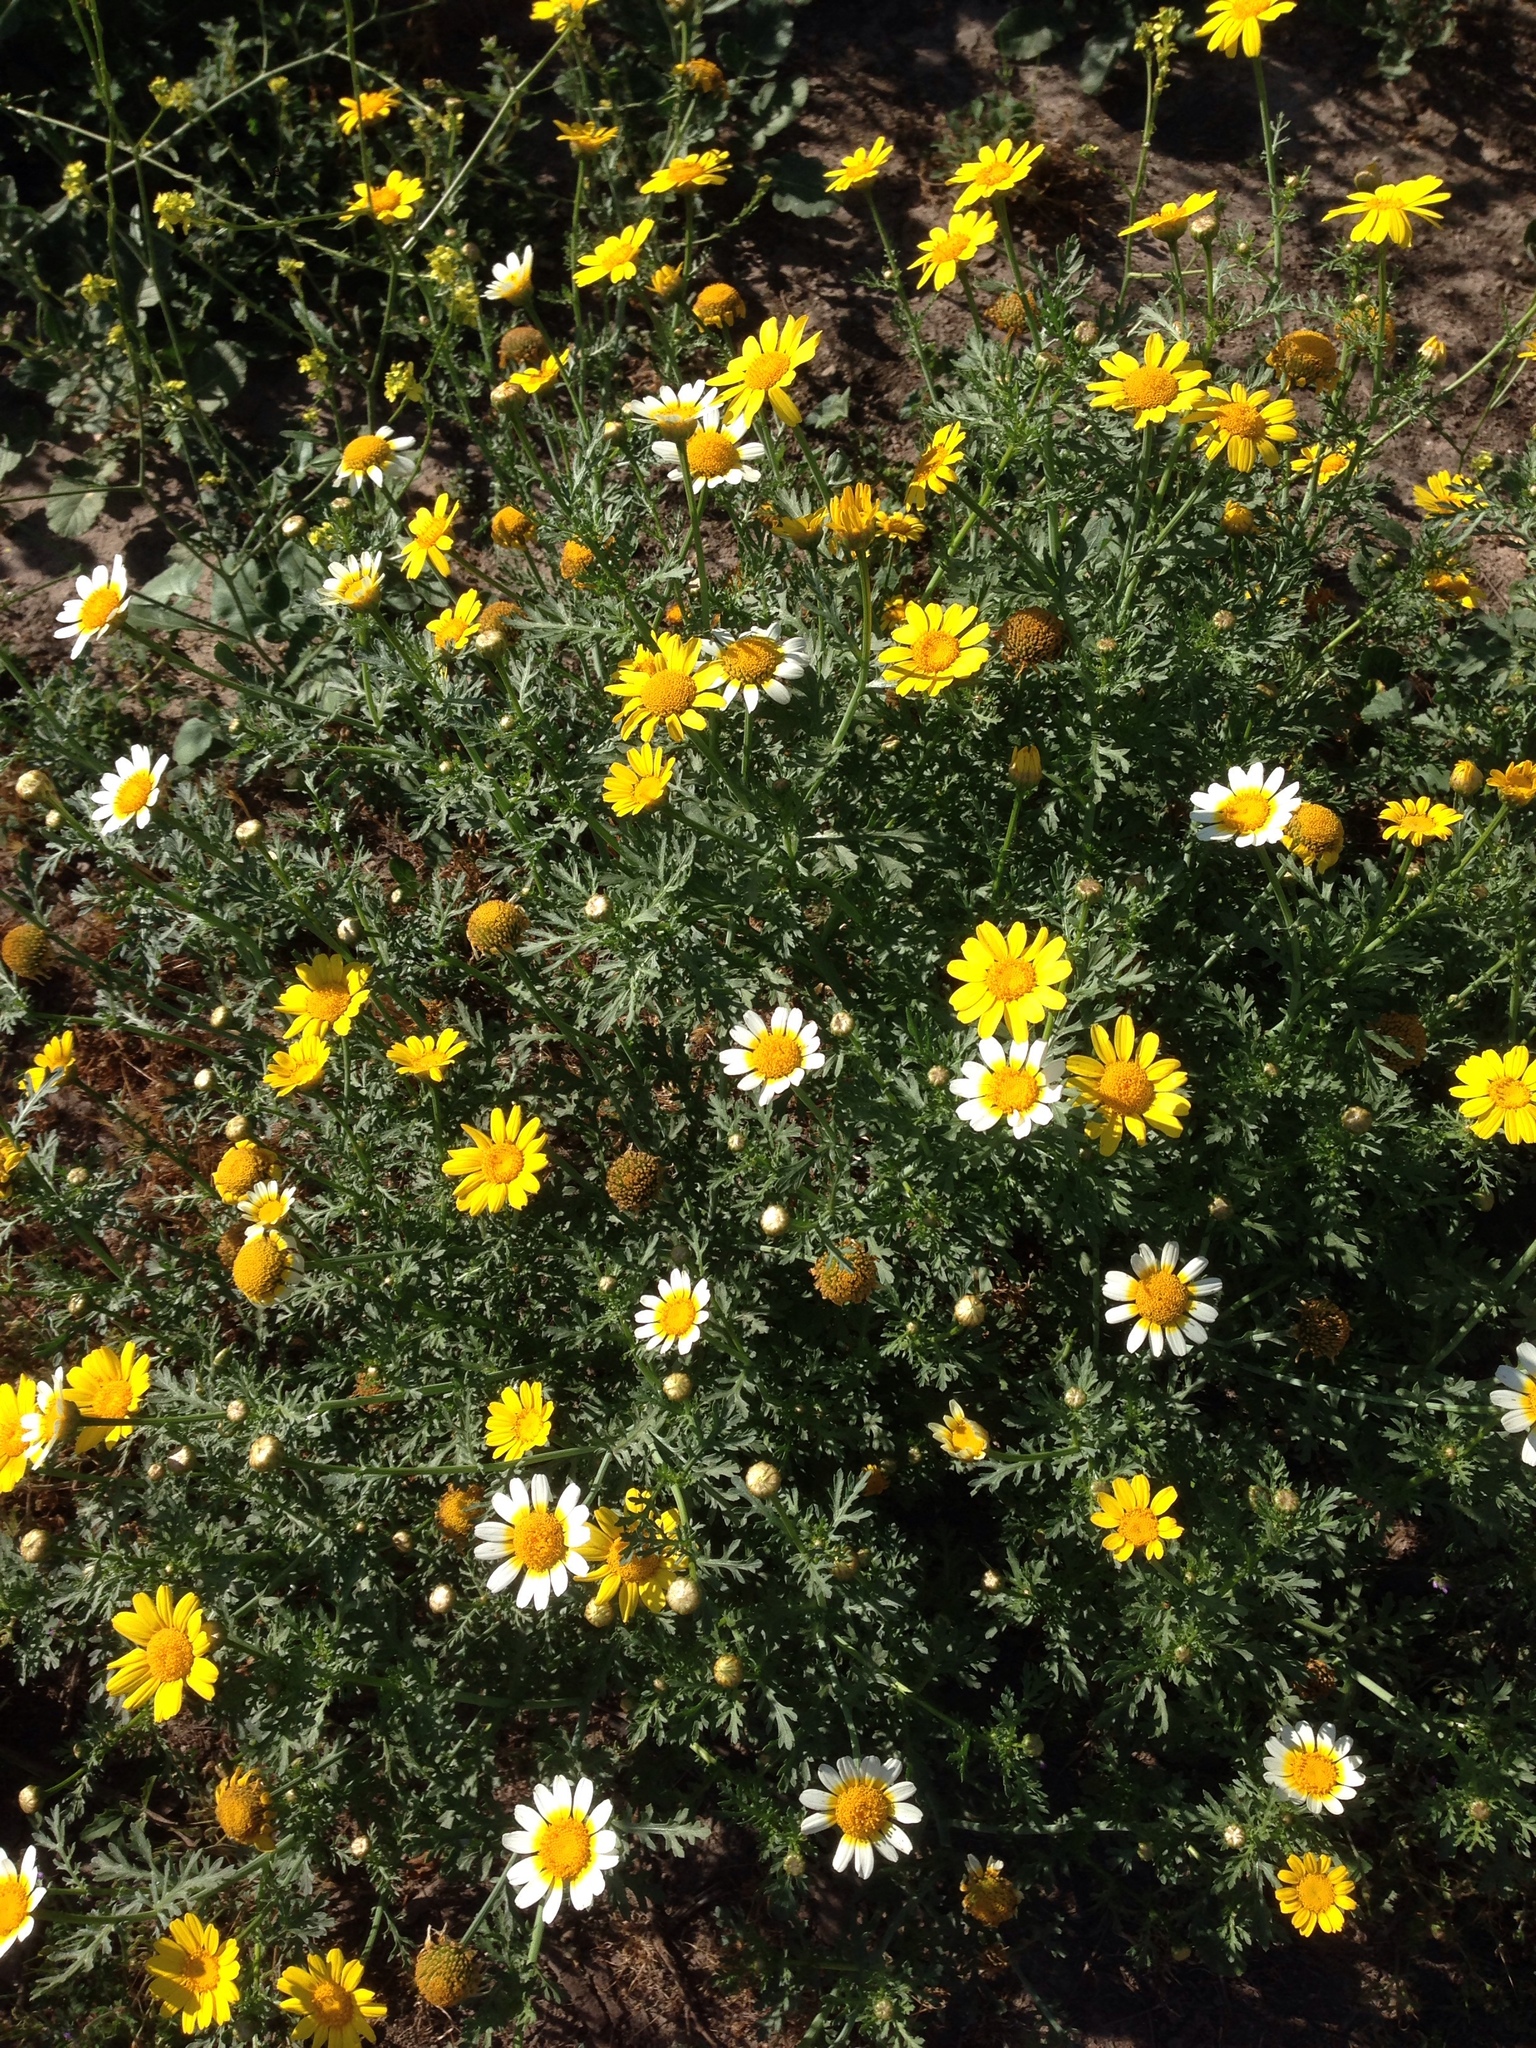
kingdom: Plantae
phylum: Tracheophyta
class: Magnoliopsida
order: Asterales
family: Asteraceae
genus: Glebionis
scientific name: Glebionis coronaria
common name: Crowndaisy
